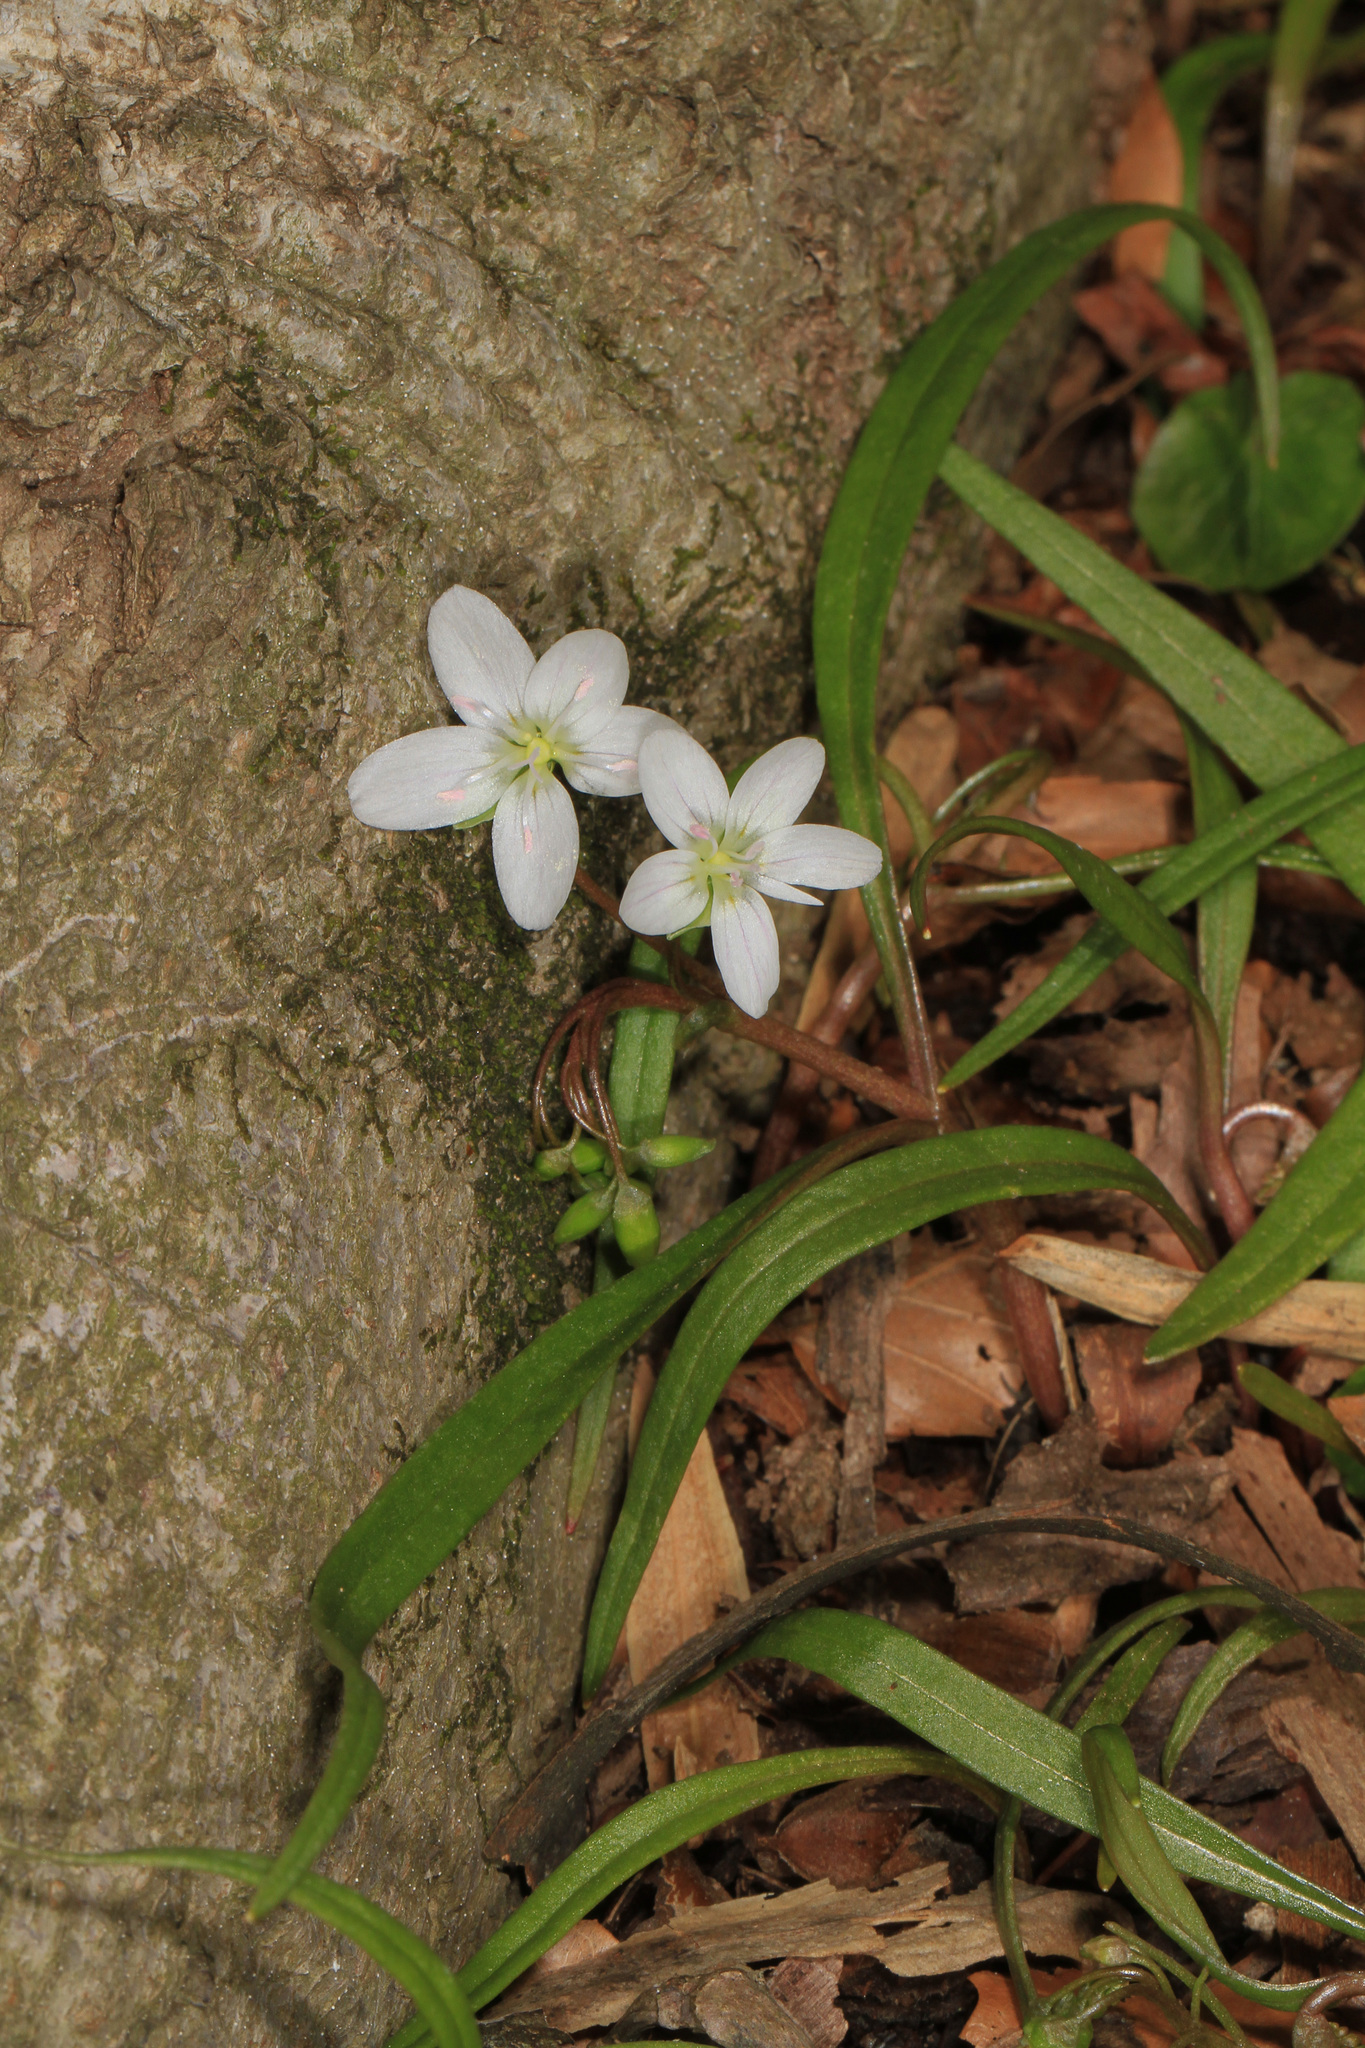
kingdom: Plantae
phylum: Tracheophyta
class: Magnoliopsida
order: Caryophyllales
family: Montiaceae
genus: Claytonia
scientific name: Claytonia virginica
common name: Virginia springbeauty
